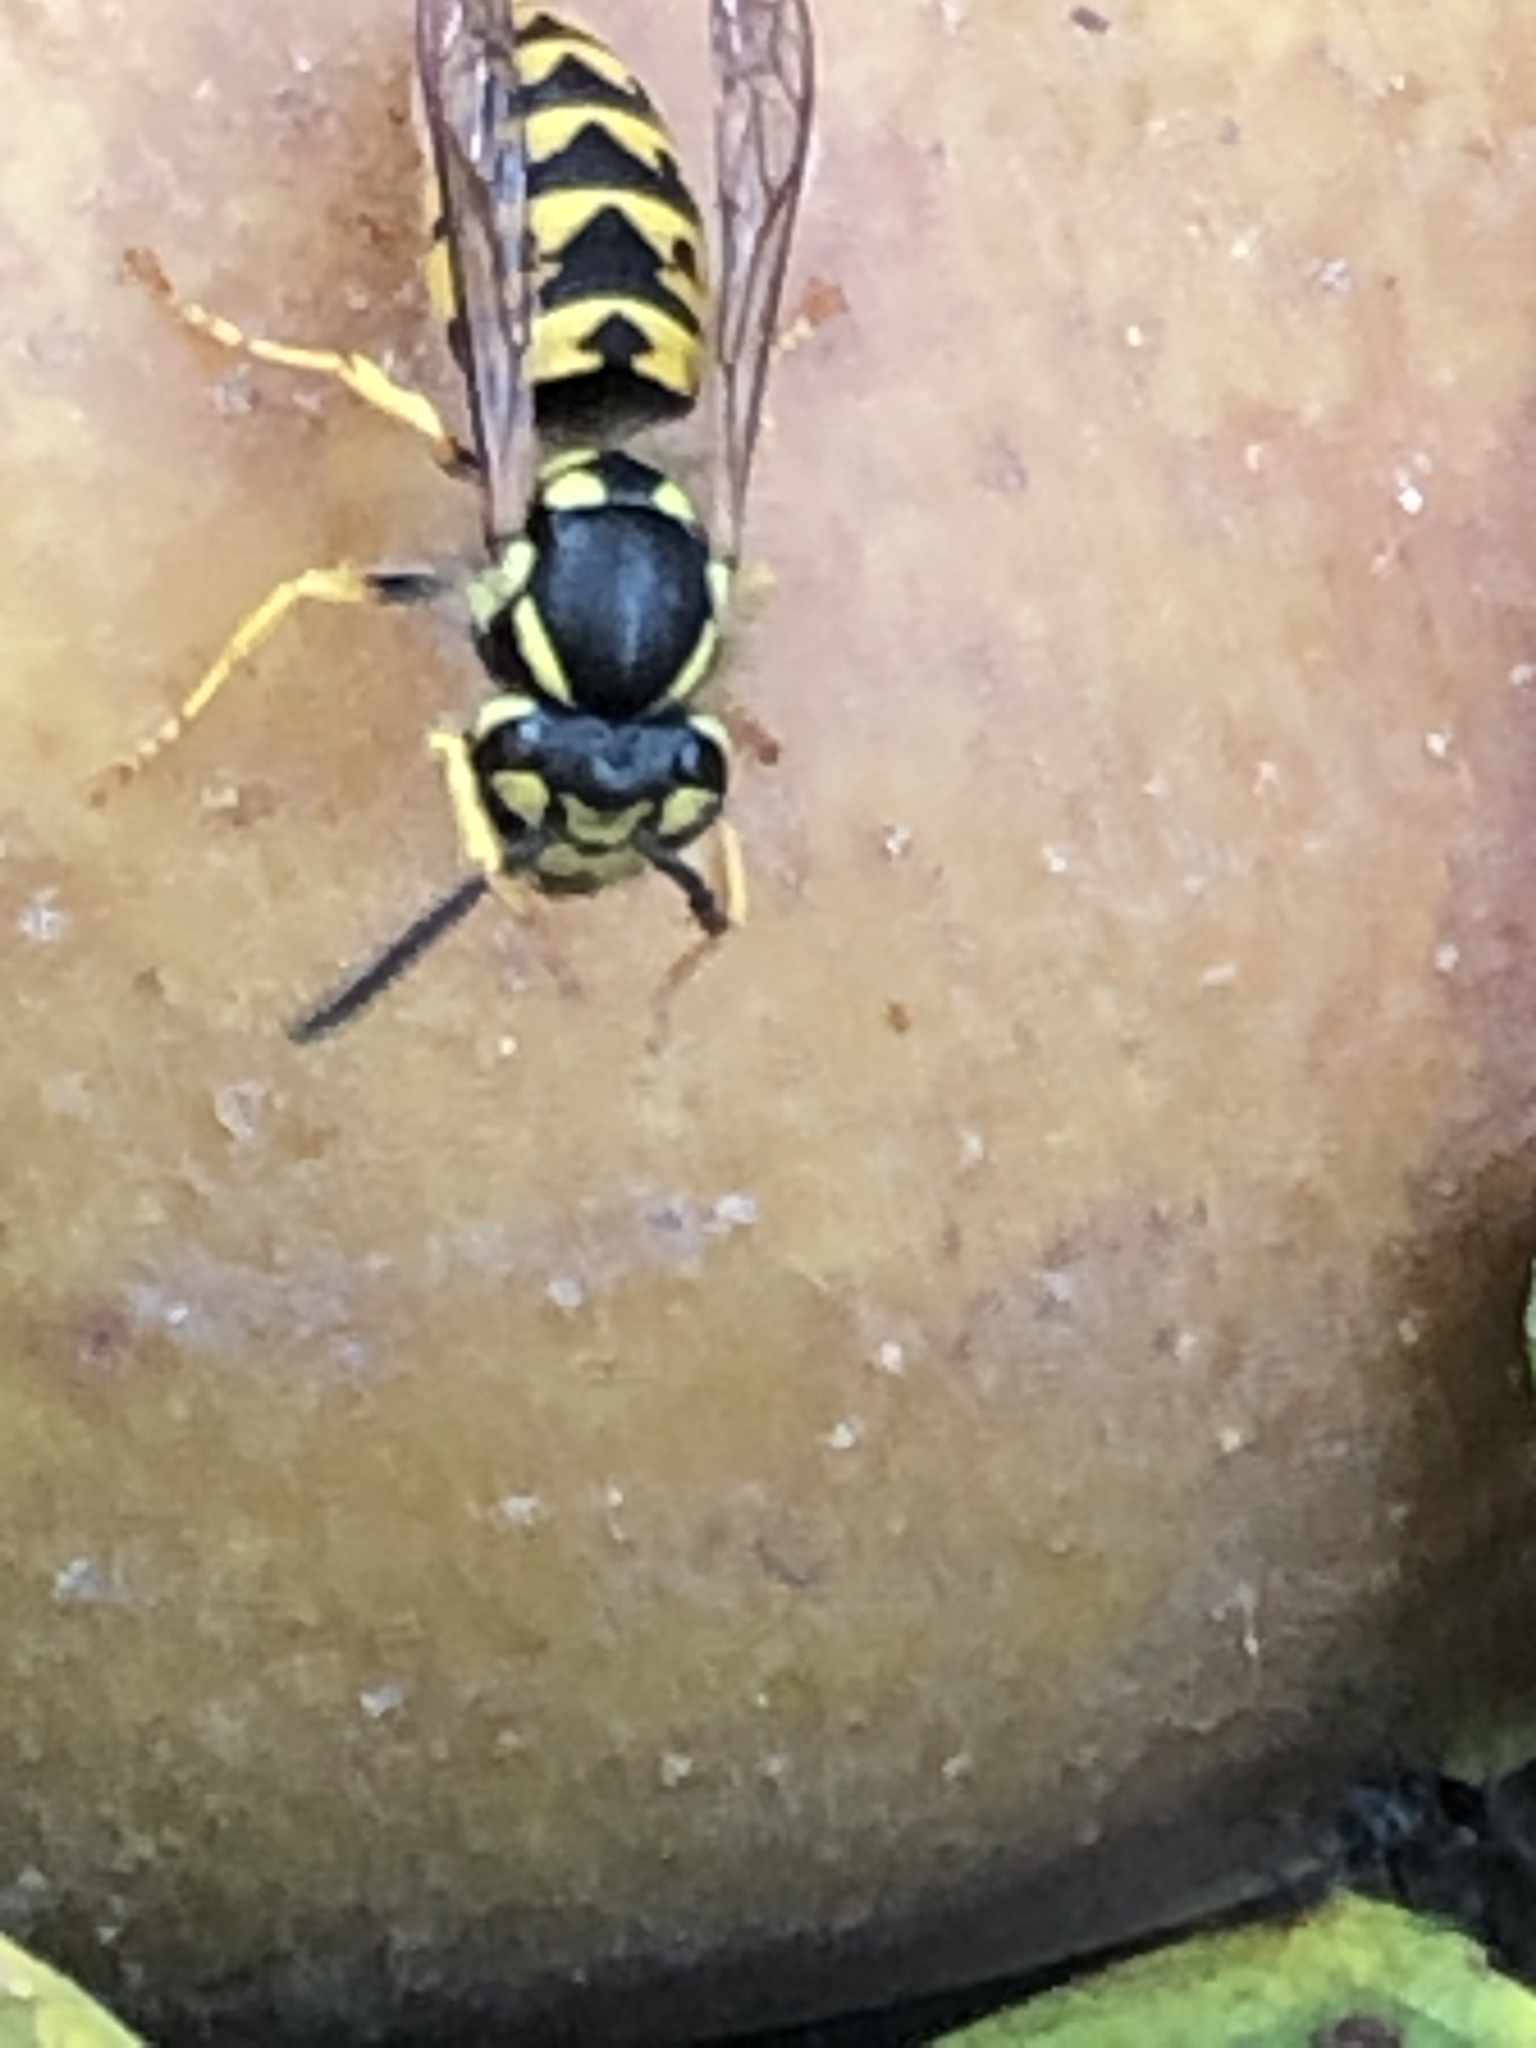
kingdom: Animalia
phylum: Arthropoda
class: Insecta
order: Hymenoptera
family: Vespidae
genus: Vespula
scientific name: Vespula germanica
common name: German wasp
